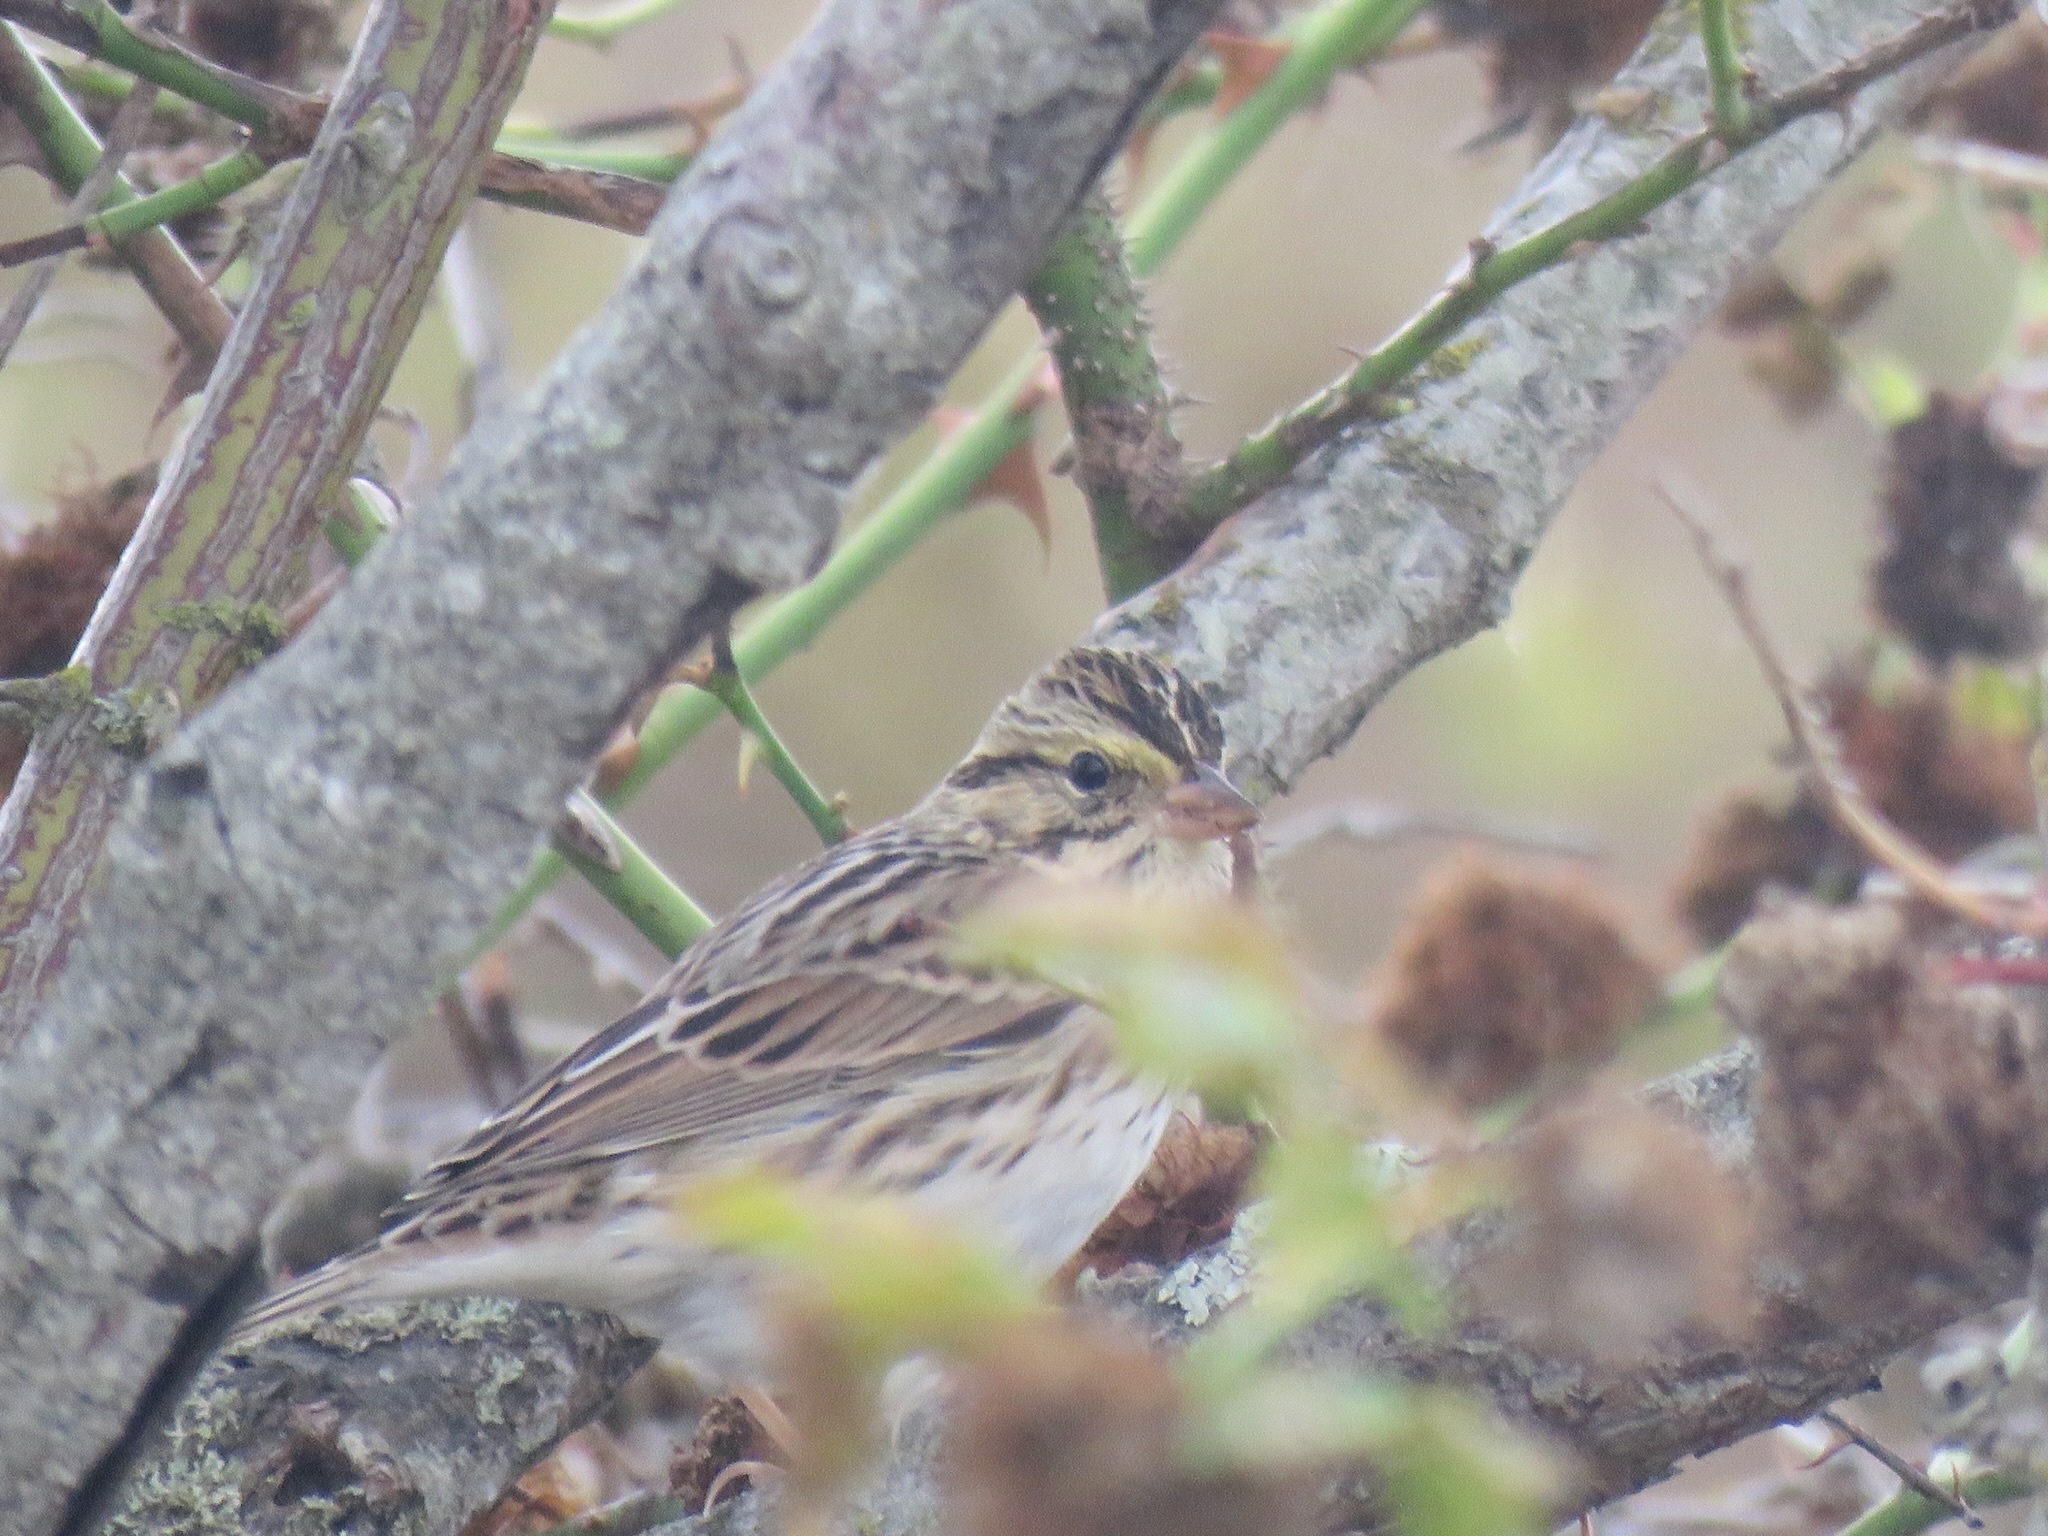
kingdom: Animalia
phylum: Chordata
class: Aves
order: Passeriformes
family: Passerellidae
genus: Passerculus
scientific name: Passerculus sandwichensis
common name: Savannah sparrow
